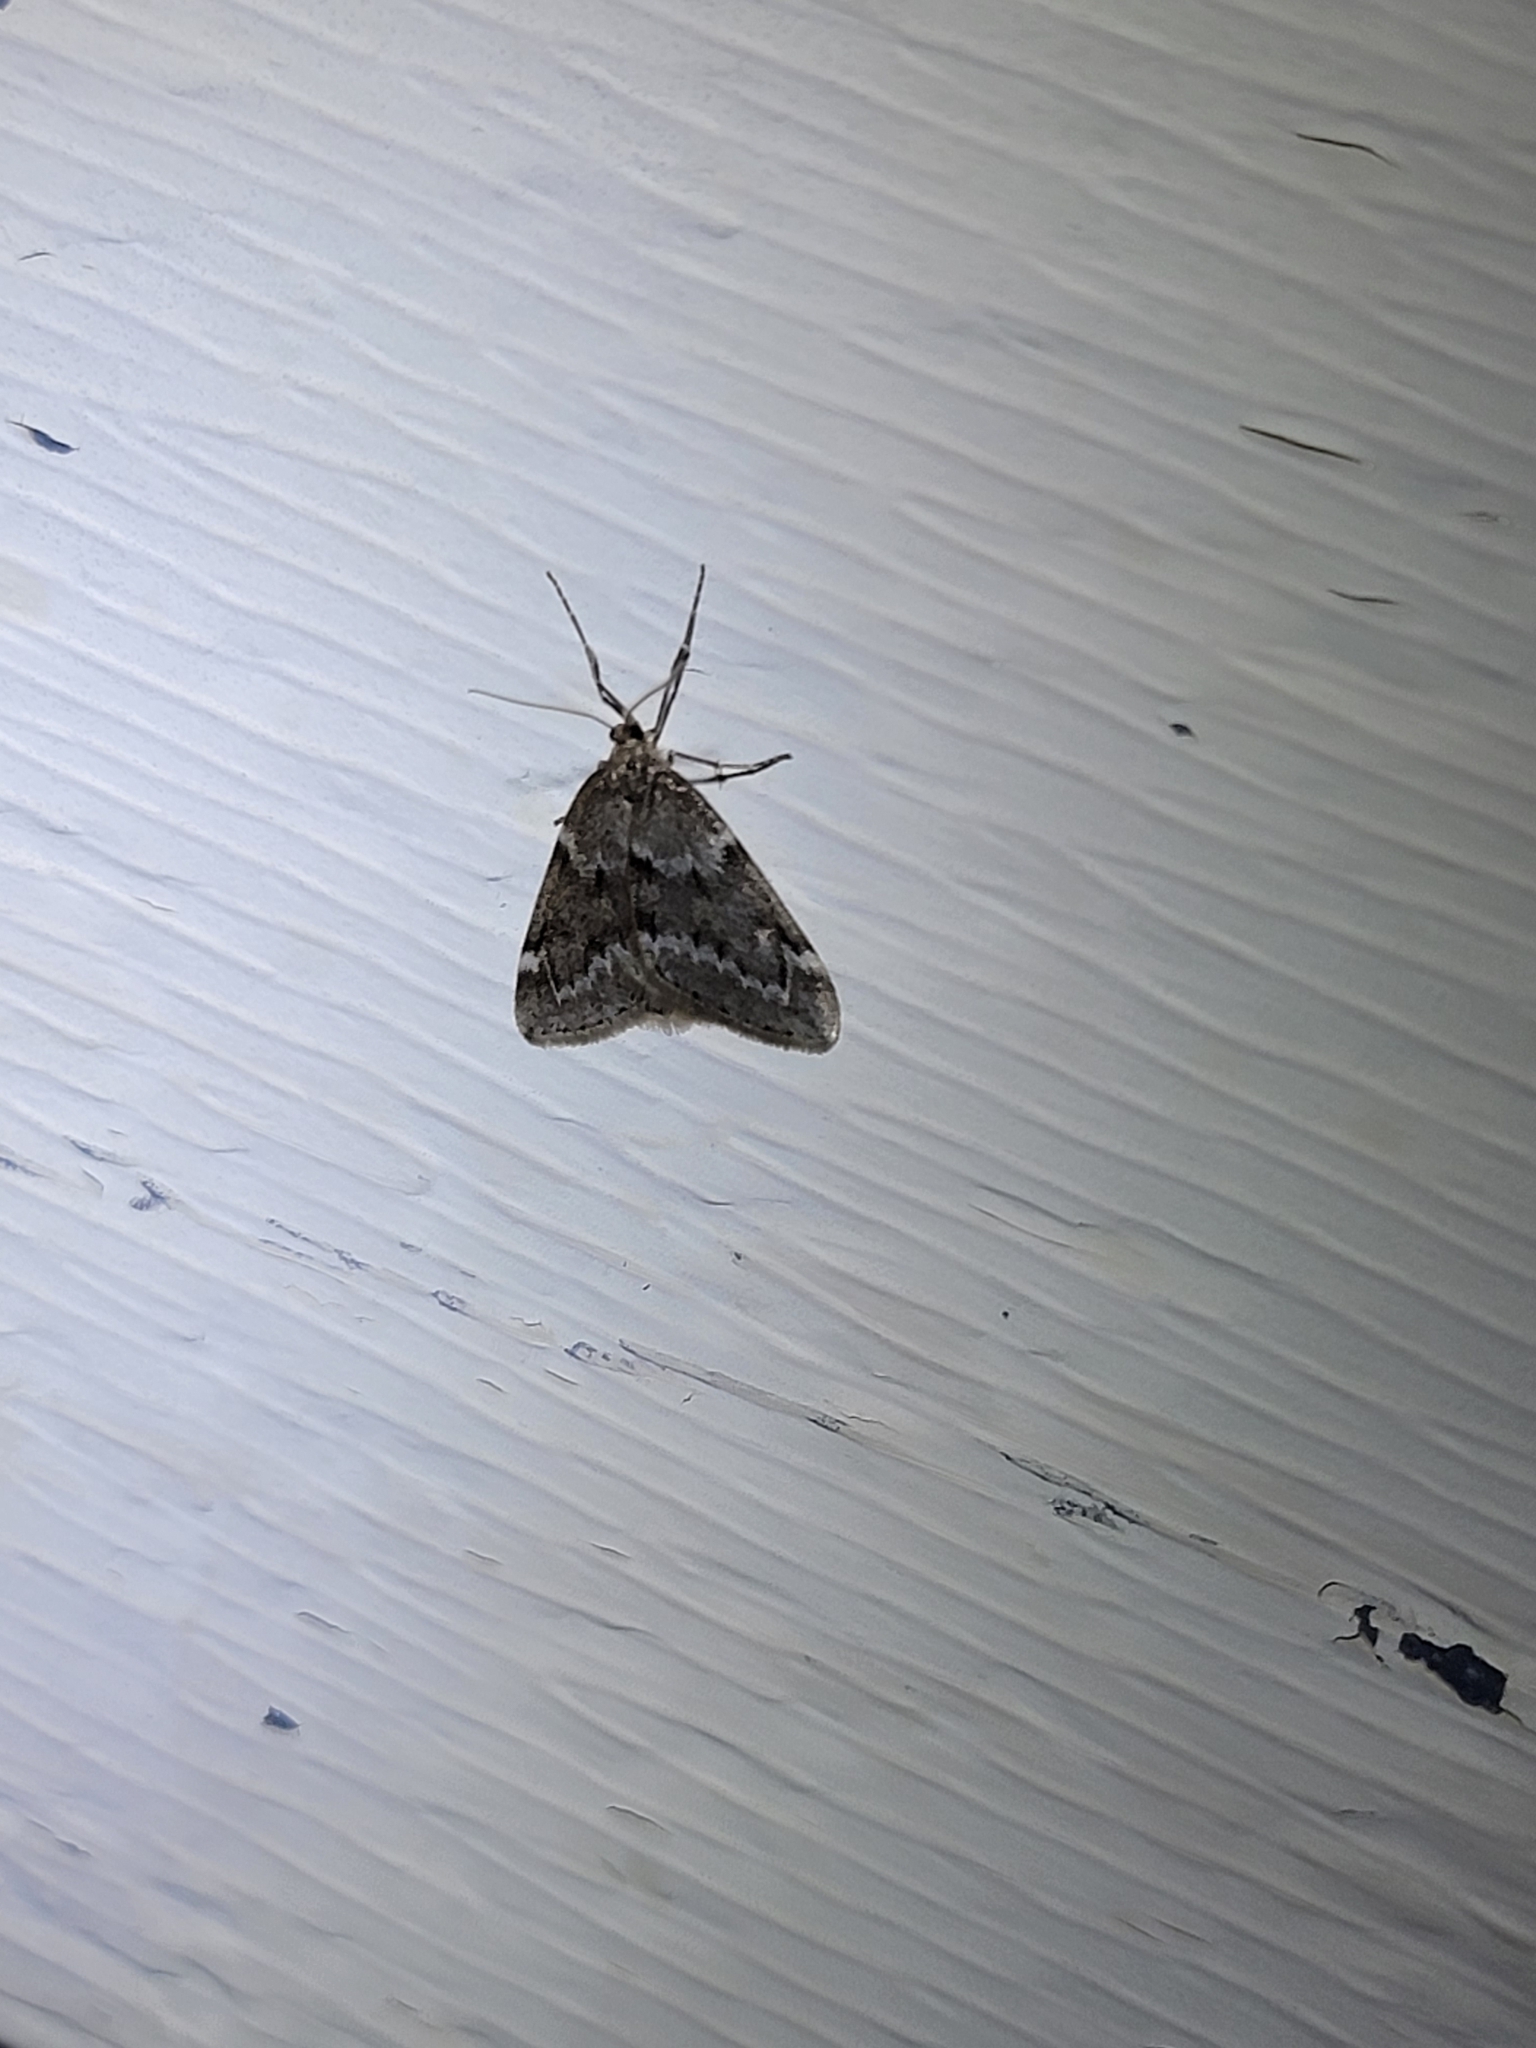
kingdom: Animalia
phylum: Arthropoda
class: Insecta
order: Lepidoptera
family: Geometridae
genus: Alsophila
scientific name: Alsophila pometaria
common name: Fall cankerworm
